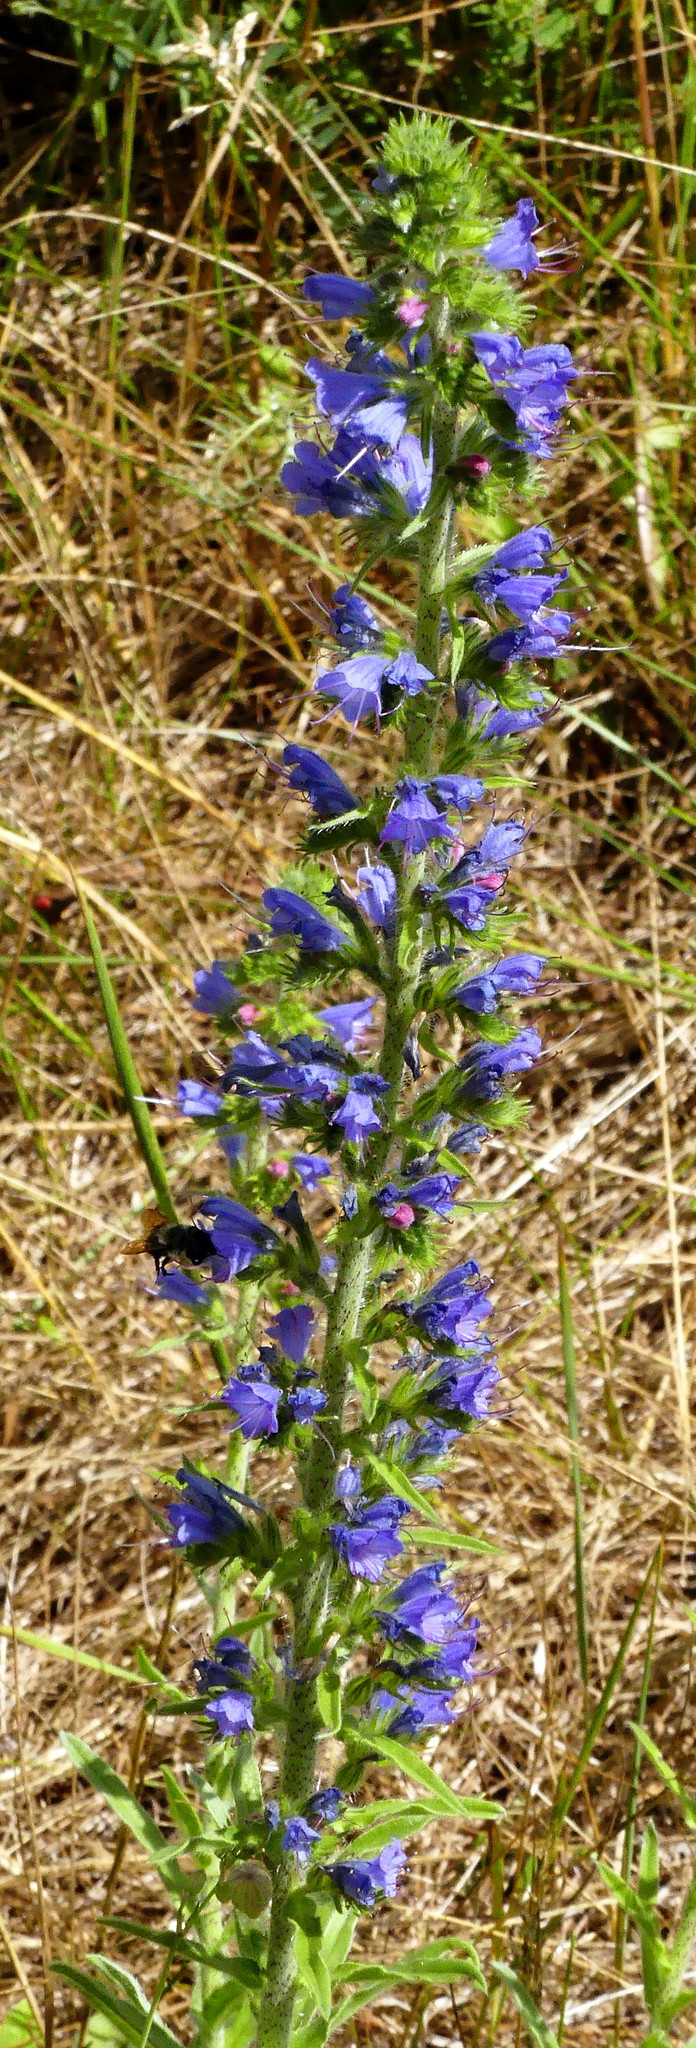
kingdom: Plantae
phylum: Tracheophyta
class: Magnoliopsida
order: Boraginales
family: Boraginaceae
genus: Echium
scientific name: Echium vulgare
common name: Common viper's bugloss
